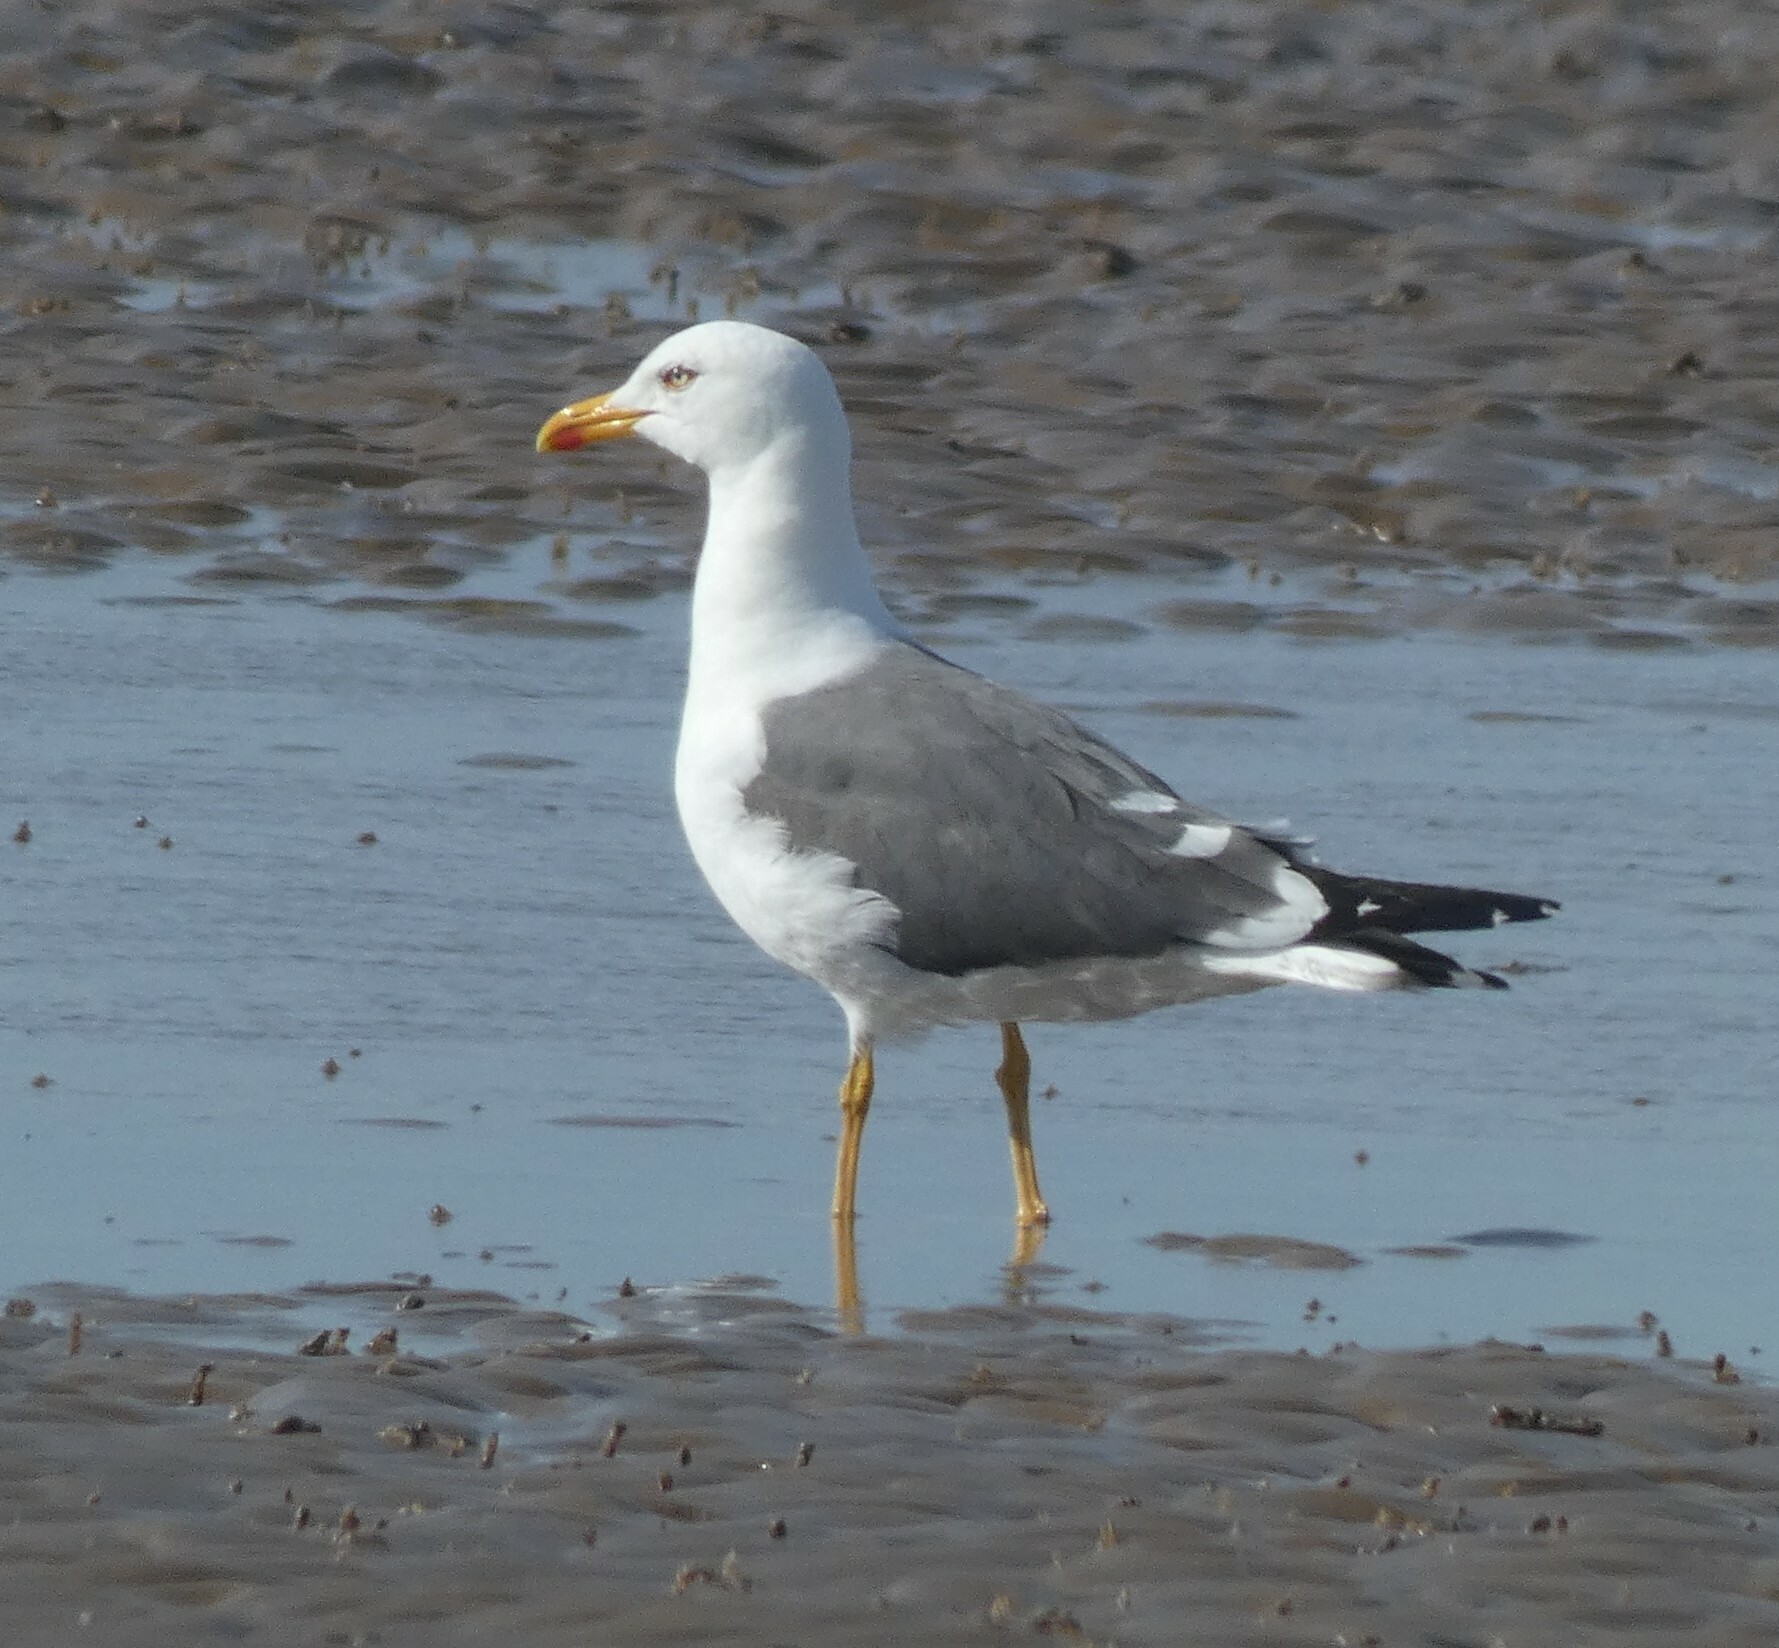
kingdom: Animalia
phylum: Chordata
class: Aves
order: Charadriiformes
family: Laridae
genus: Larus
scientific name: Larus fuscus
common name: Lesser black-backed gull
